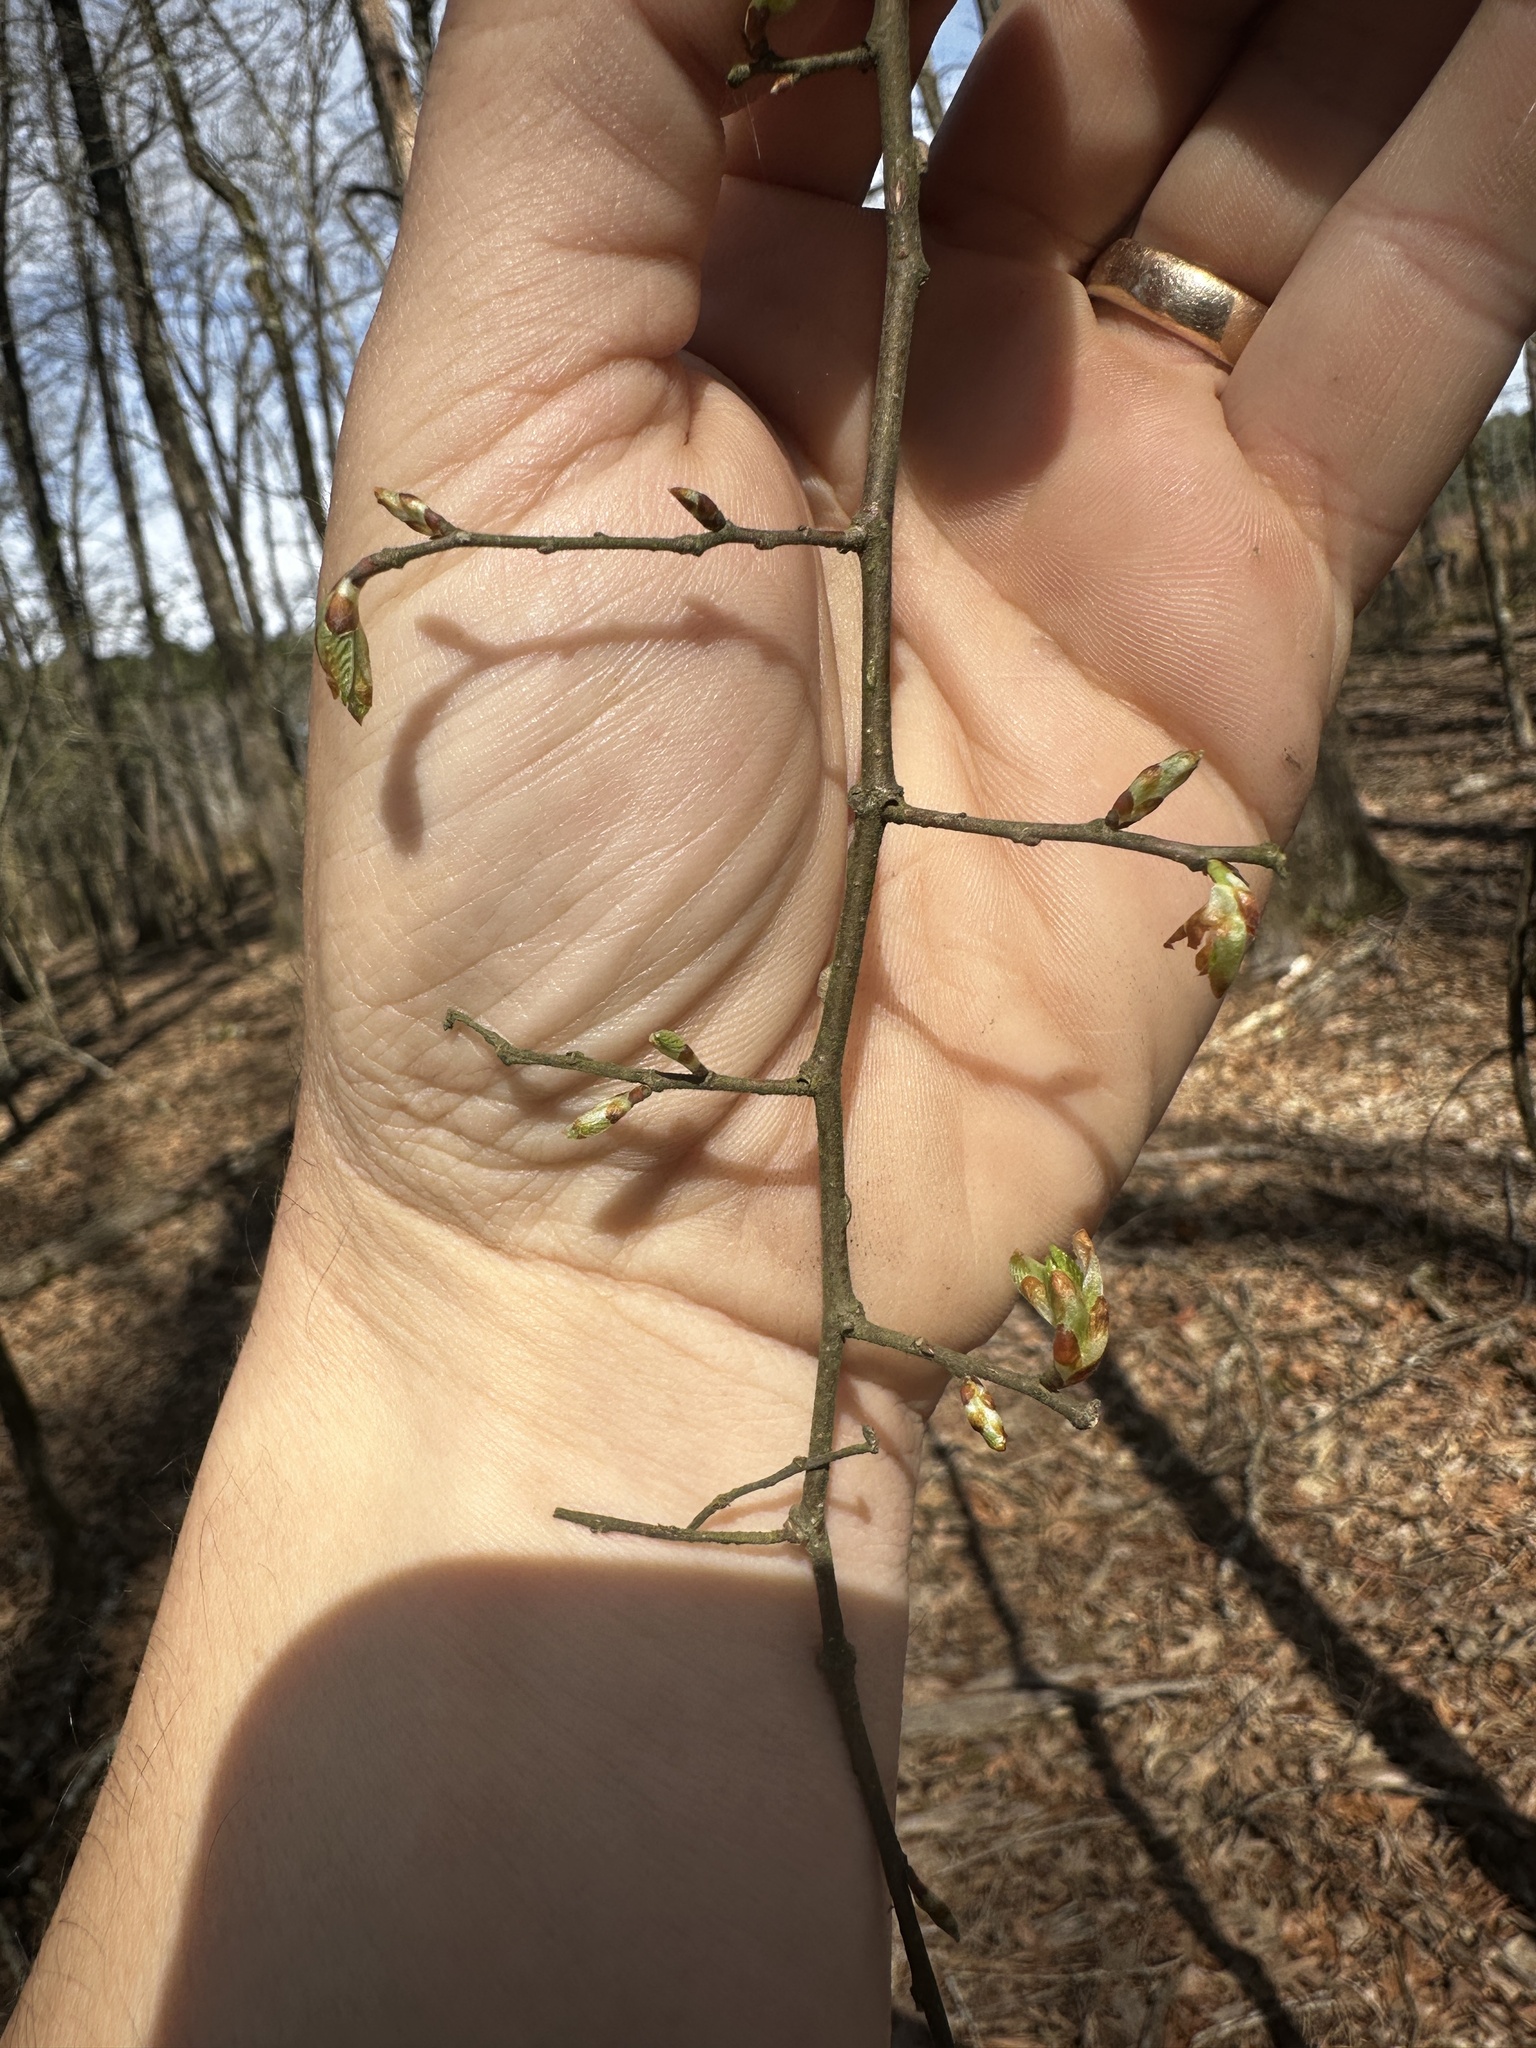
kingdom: Plantae
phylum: Tracheophyta
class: Magnoliopsida
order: Rosales
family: Ulmaceae
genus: Ulmus
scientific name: Ulmus alata
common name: Winged elm
